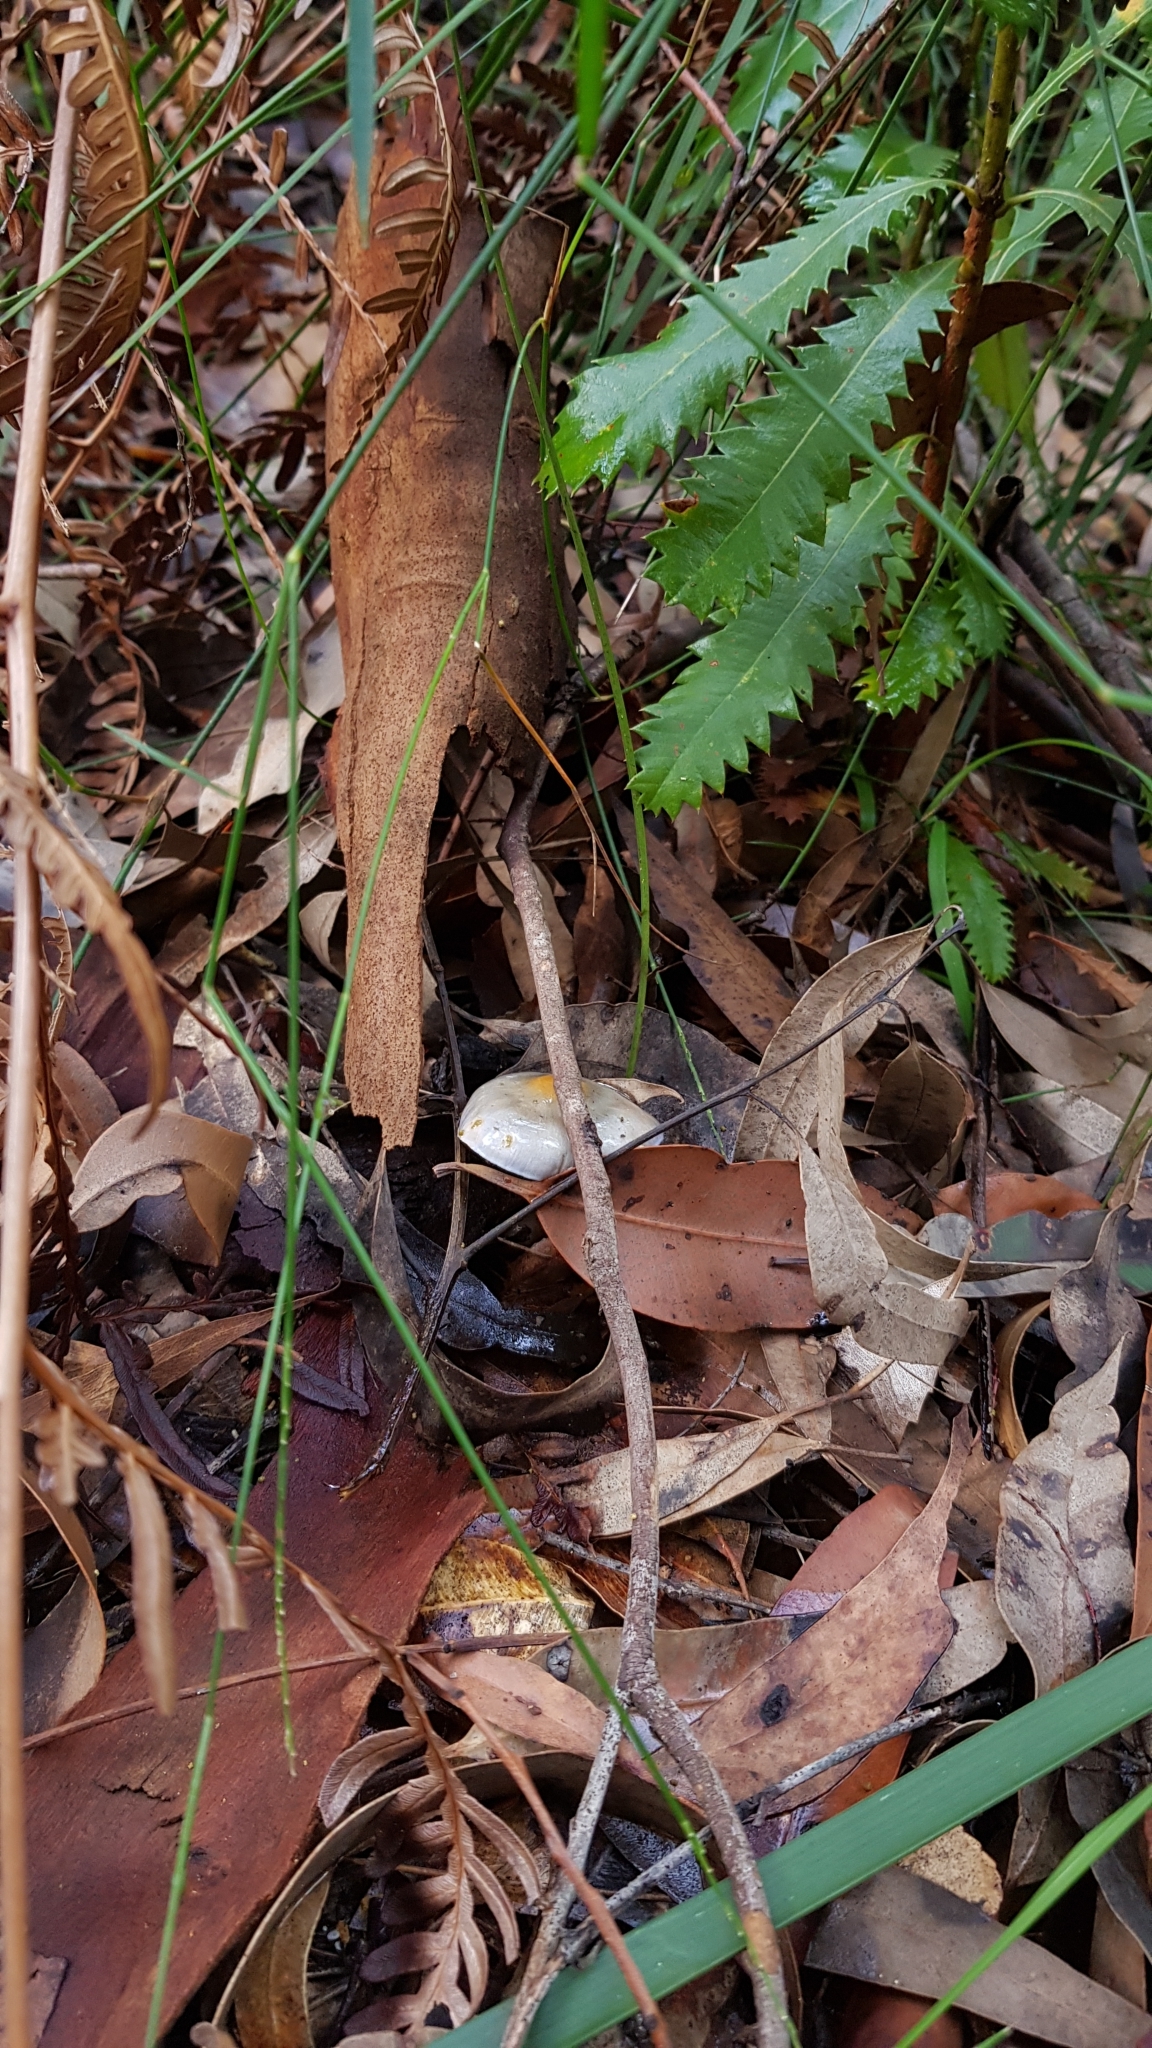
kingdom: Fungi
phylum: Basidiomycota
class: Agaricomycetes
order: Agaricales
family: Cortinariaceae
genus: Cortinarius
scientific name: Cortinarius rotundisporus
